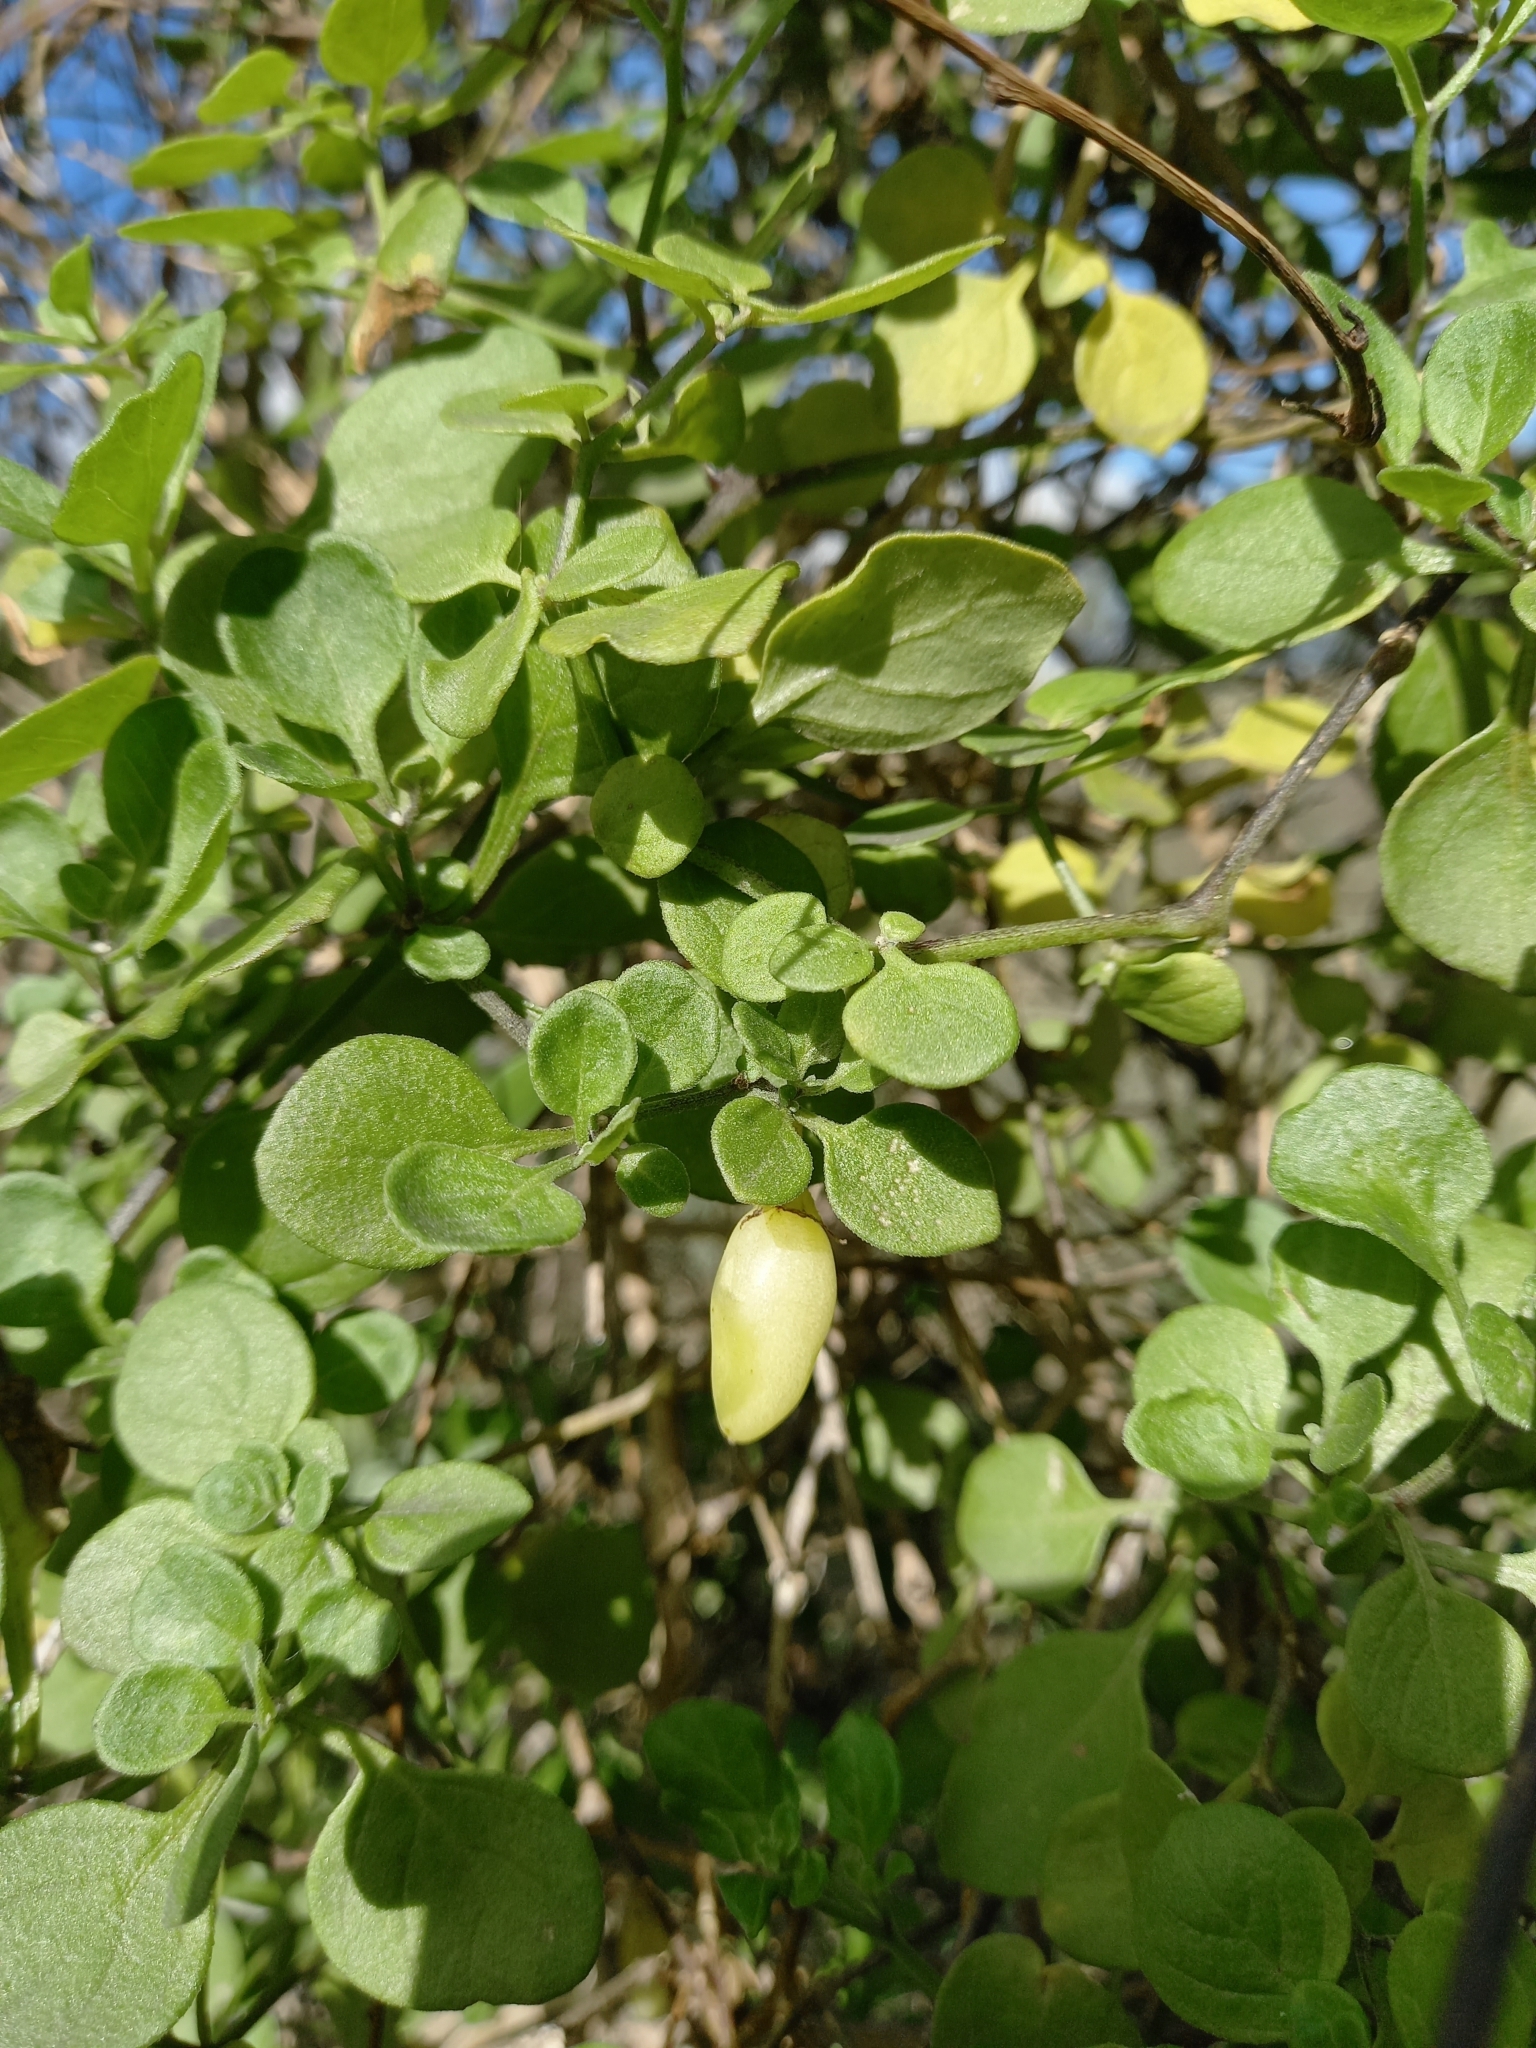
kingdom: Plantae
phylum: Tracheophyta
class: Magnoliopsida
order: Solanales
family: Solanaceae
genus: Salpichroa
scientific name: Salpichroa origanifolia
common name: Lily-of-the-valley-vine
